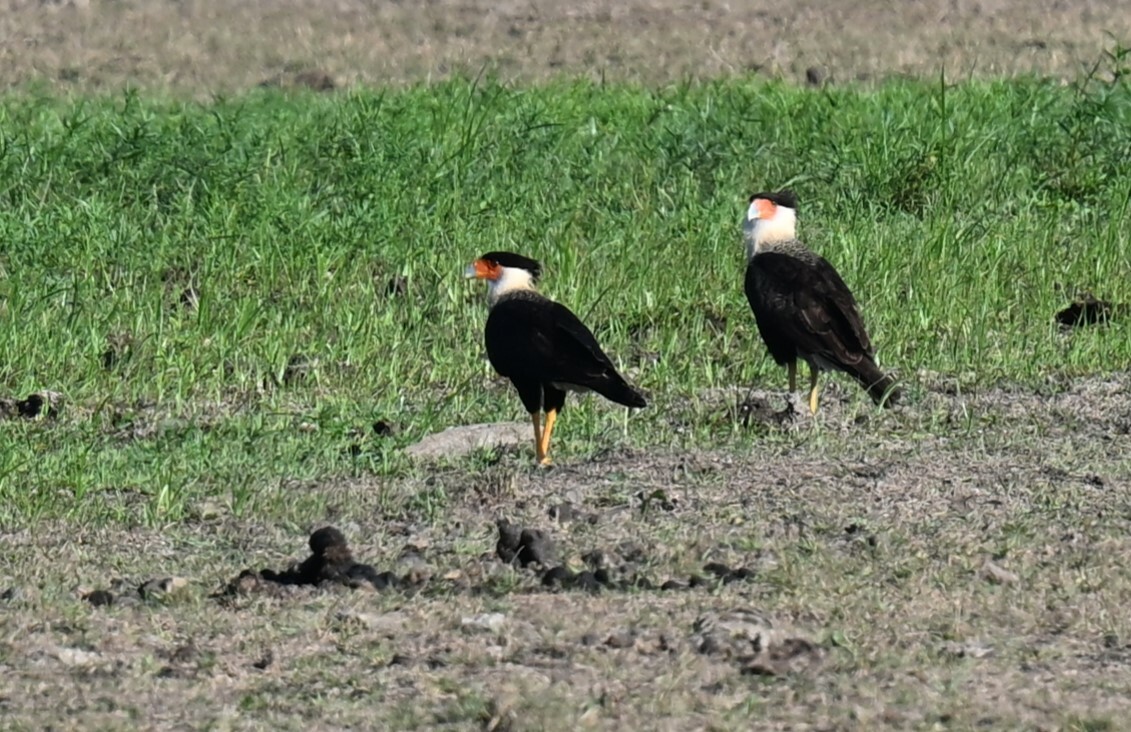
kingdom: Animalia
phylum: Chordata
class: Aves
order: Falconiformes
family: Falconidae
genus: Caracara
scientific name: Caracara plancus
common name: Southern caracara
